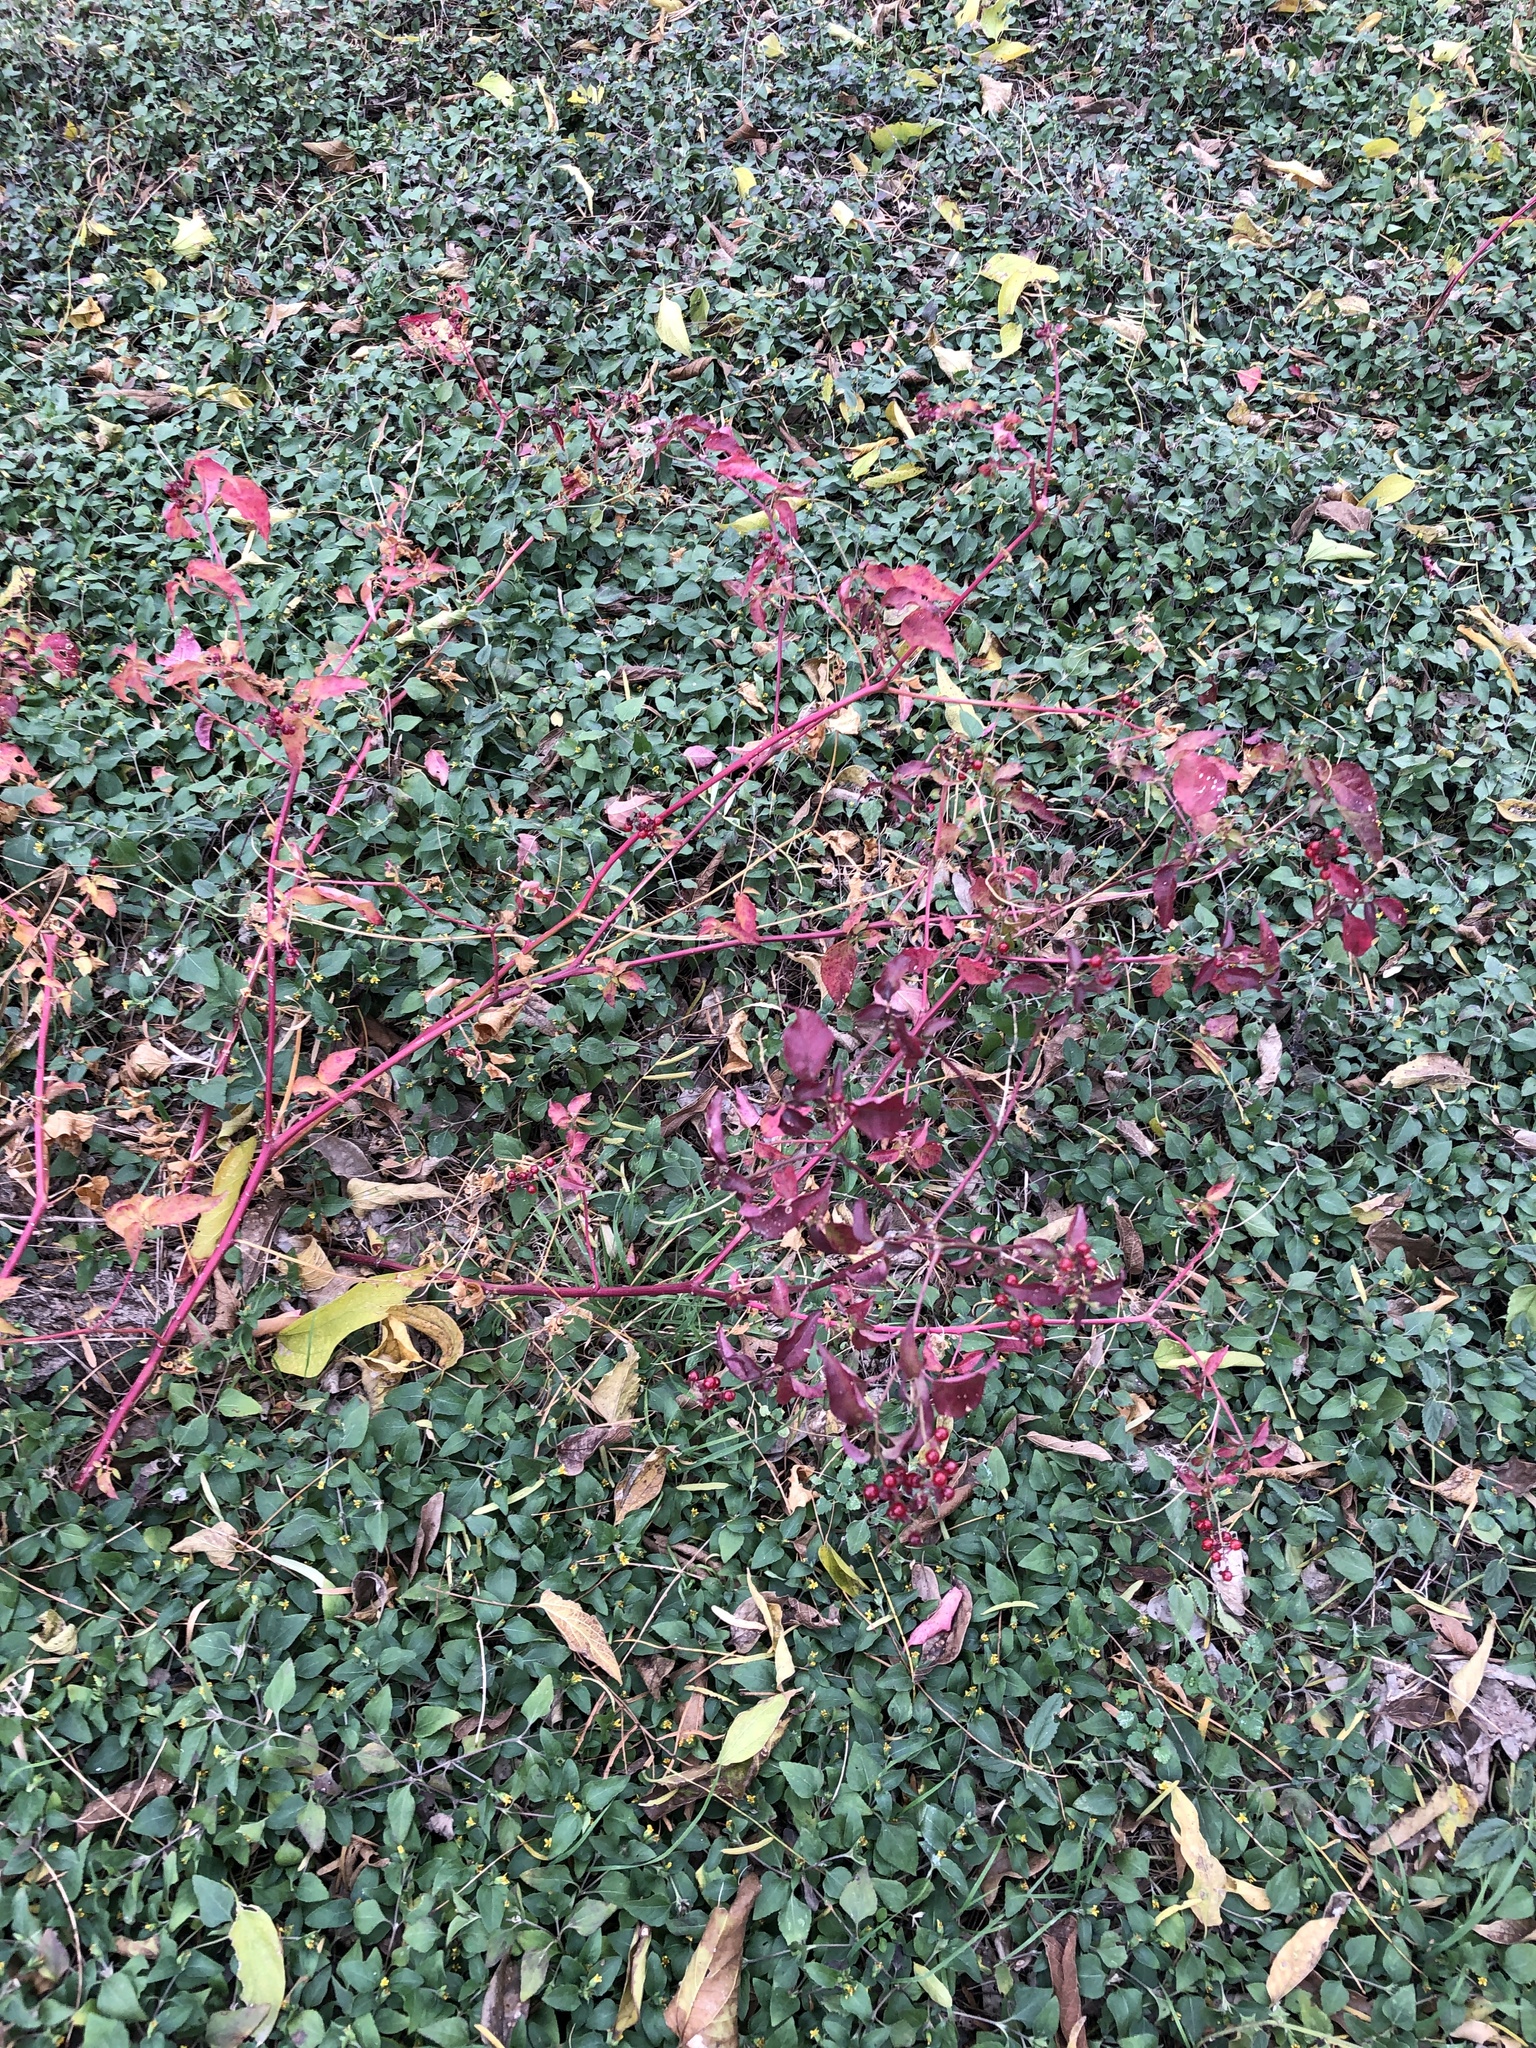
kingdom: Plantae
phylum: Tracheophyta
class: Magnoliopsida
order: Caryophyllales
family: Phytolaccaceae
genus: Rivina
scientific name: Rivina humilis
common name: Rougeplant
